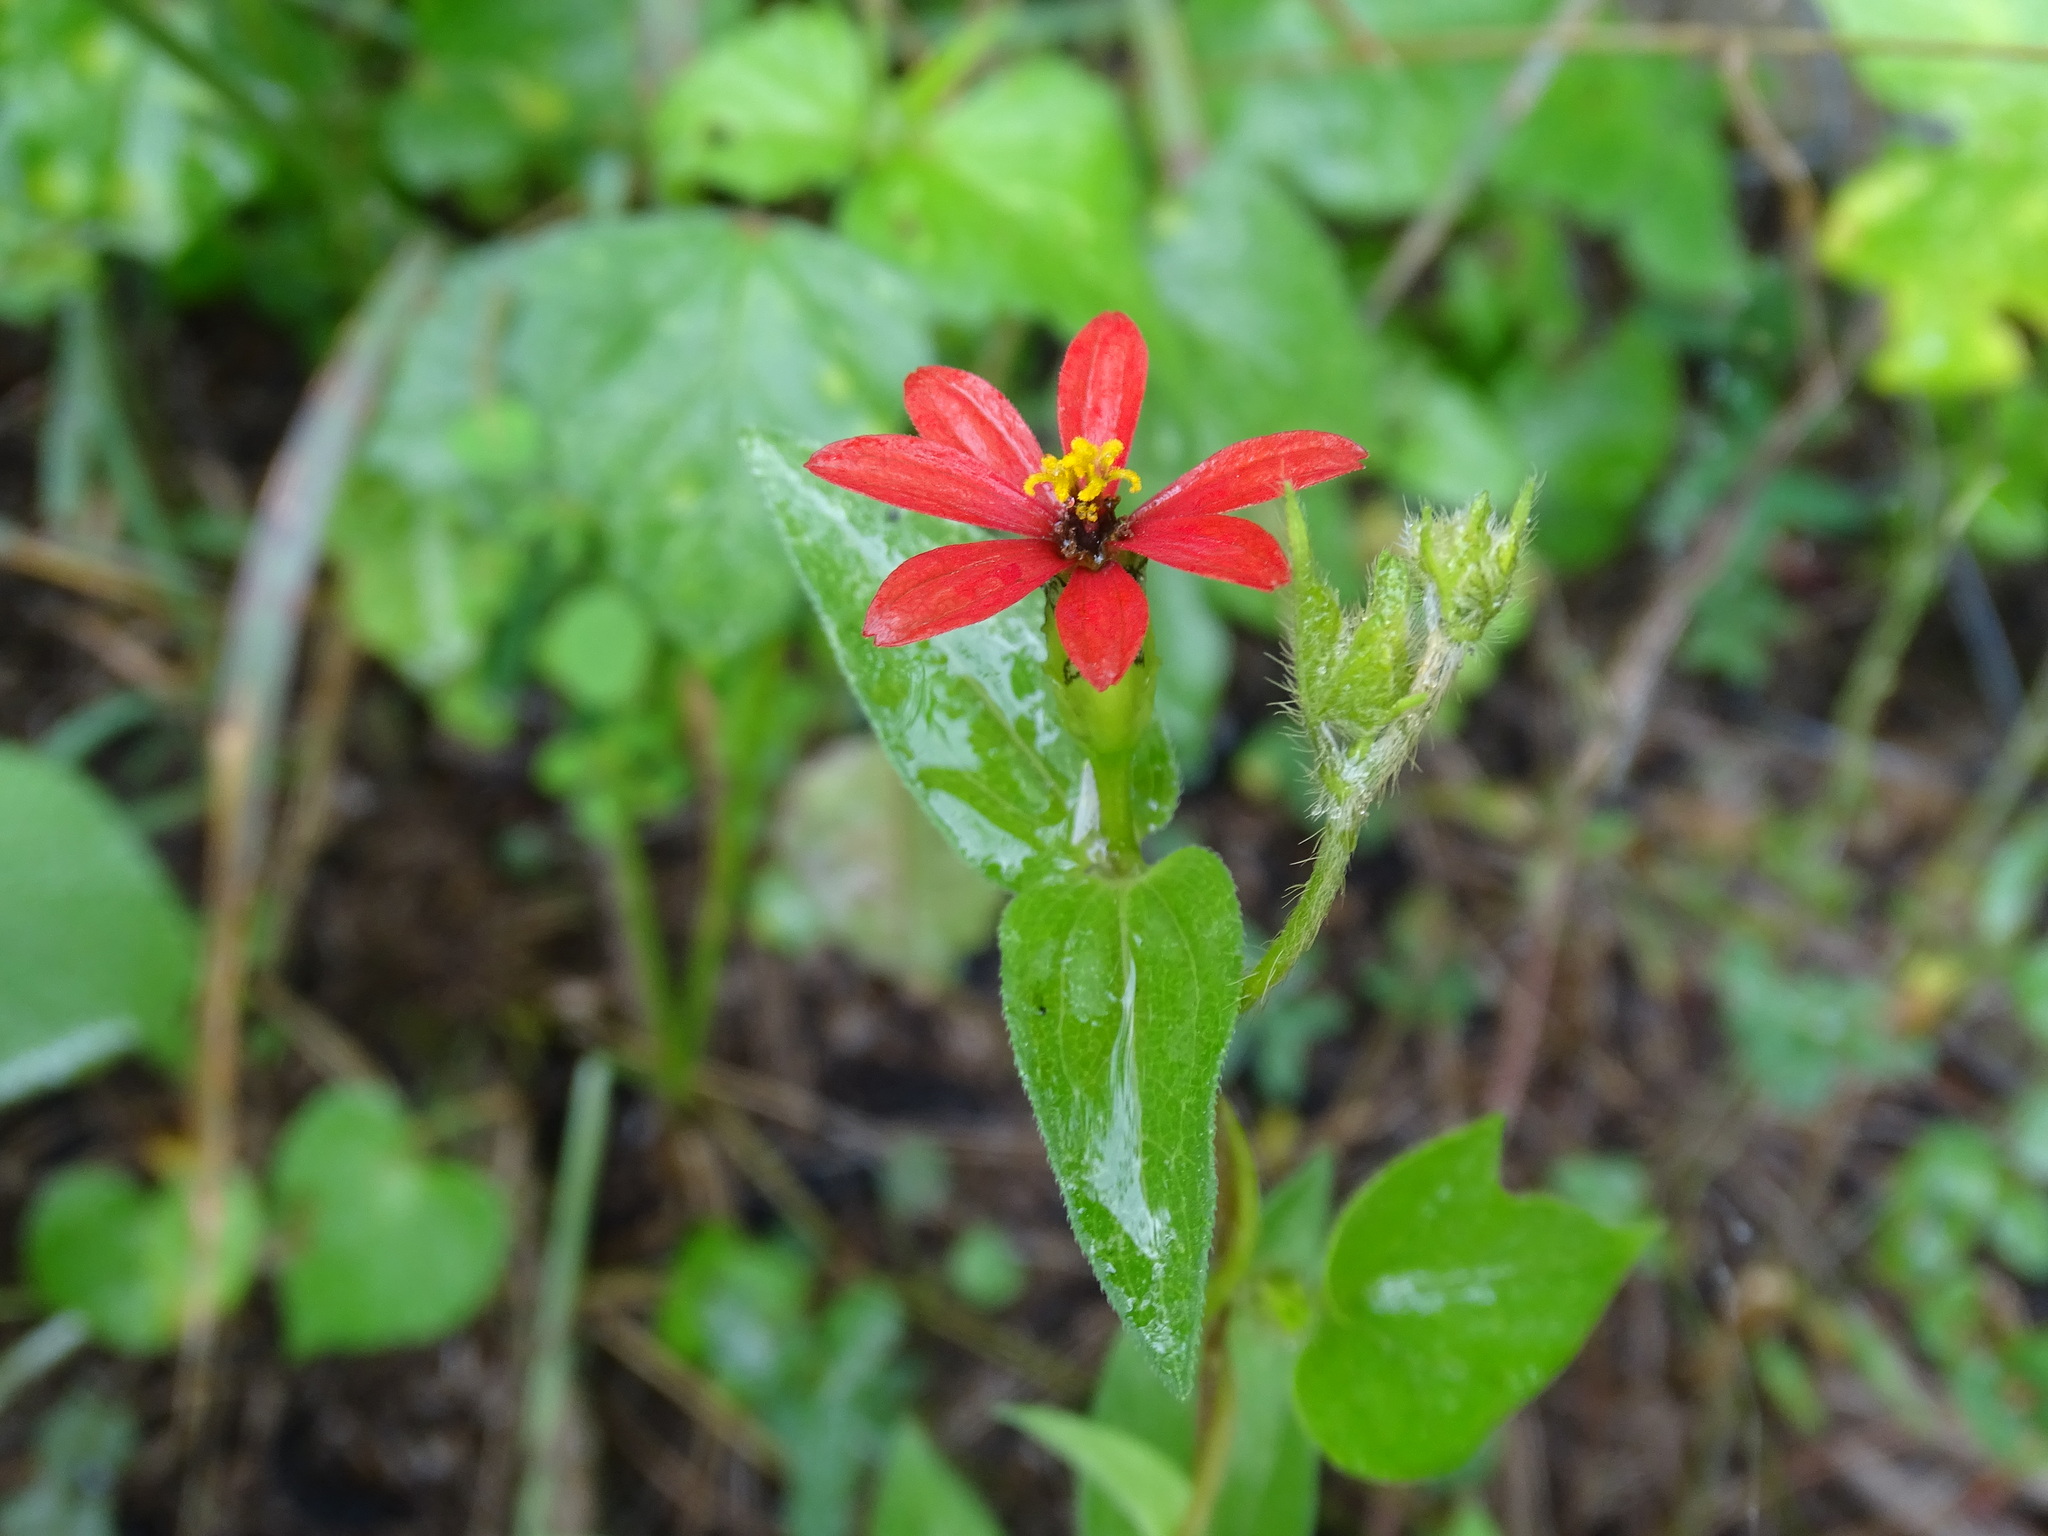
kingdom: Plantae
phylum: Tracheophyta
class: Magnoliopsida
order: Asterales
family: Asteraceae
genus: Zinnia
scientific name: Zinnia peruviana
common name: Peruvian zinnia
